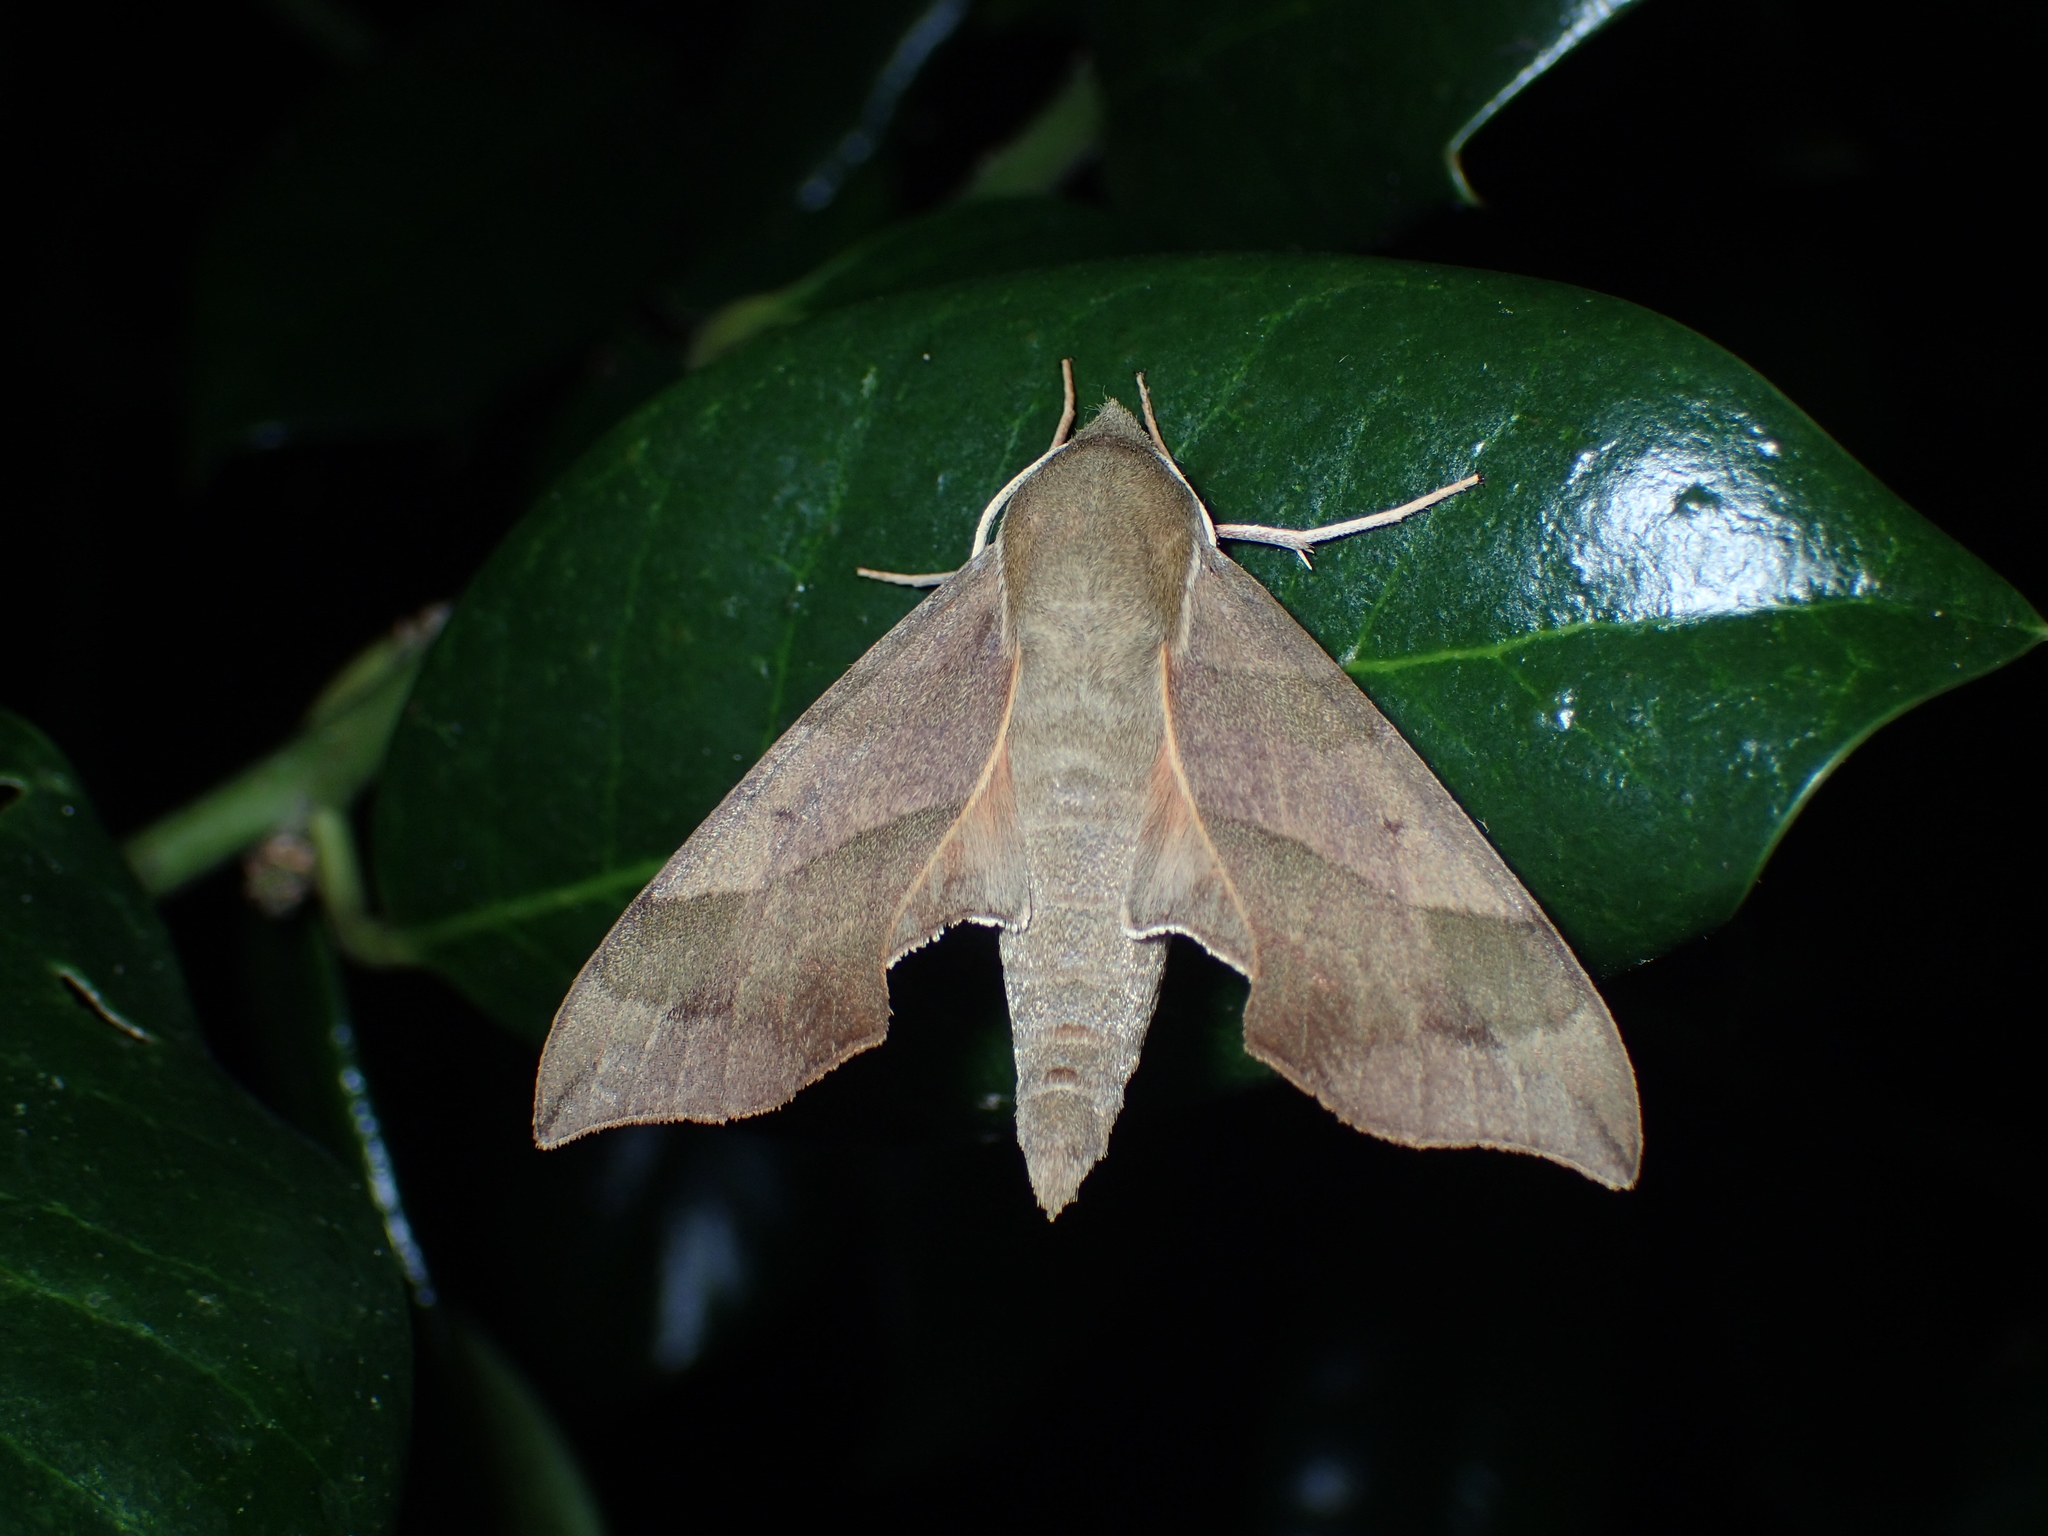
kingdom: Animalia
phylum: Arthropoda
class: Insecta
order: Lepidoptera
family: Sphingidae
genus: Darapsa
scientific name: Darapsa myron
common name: Hog sphinx
